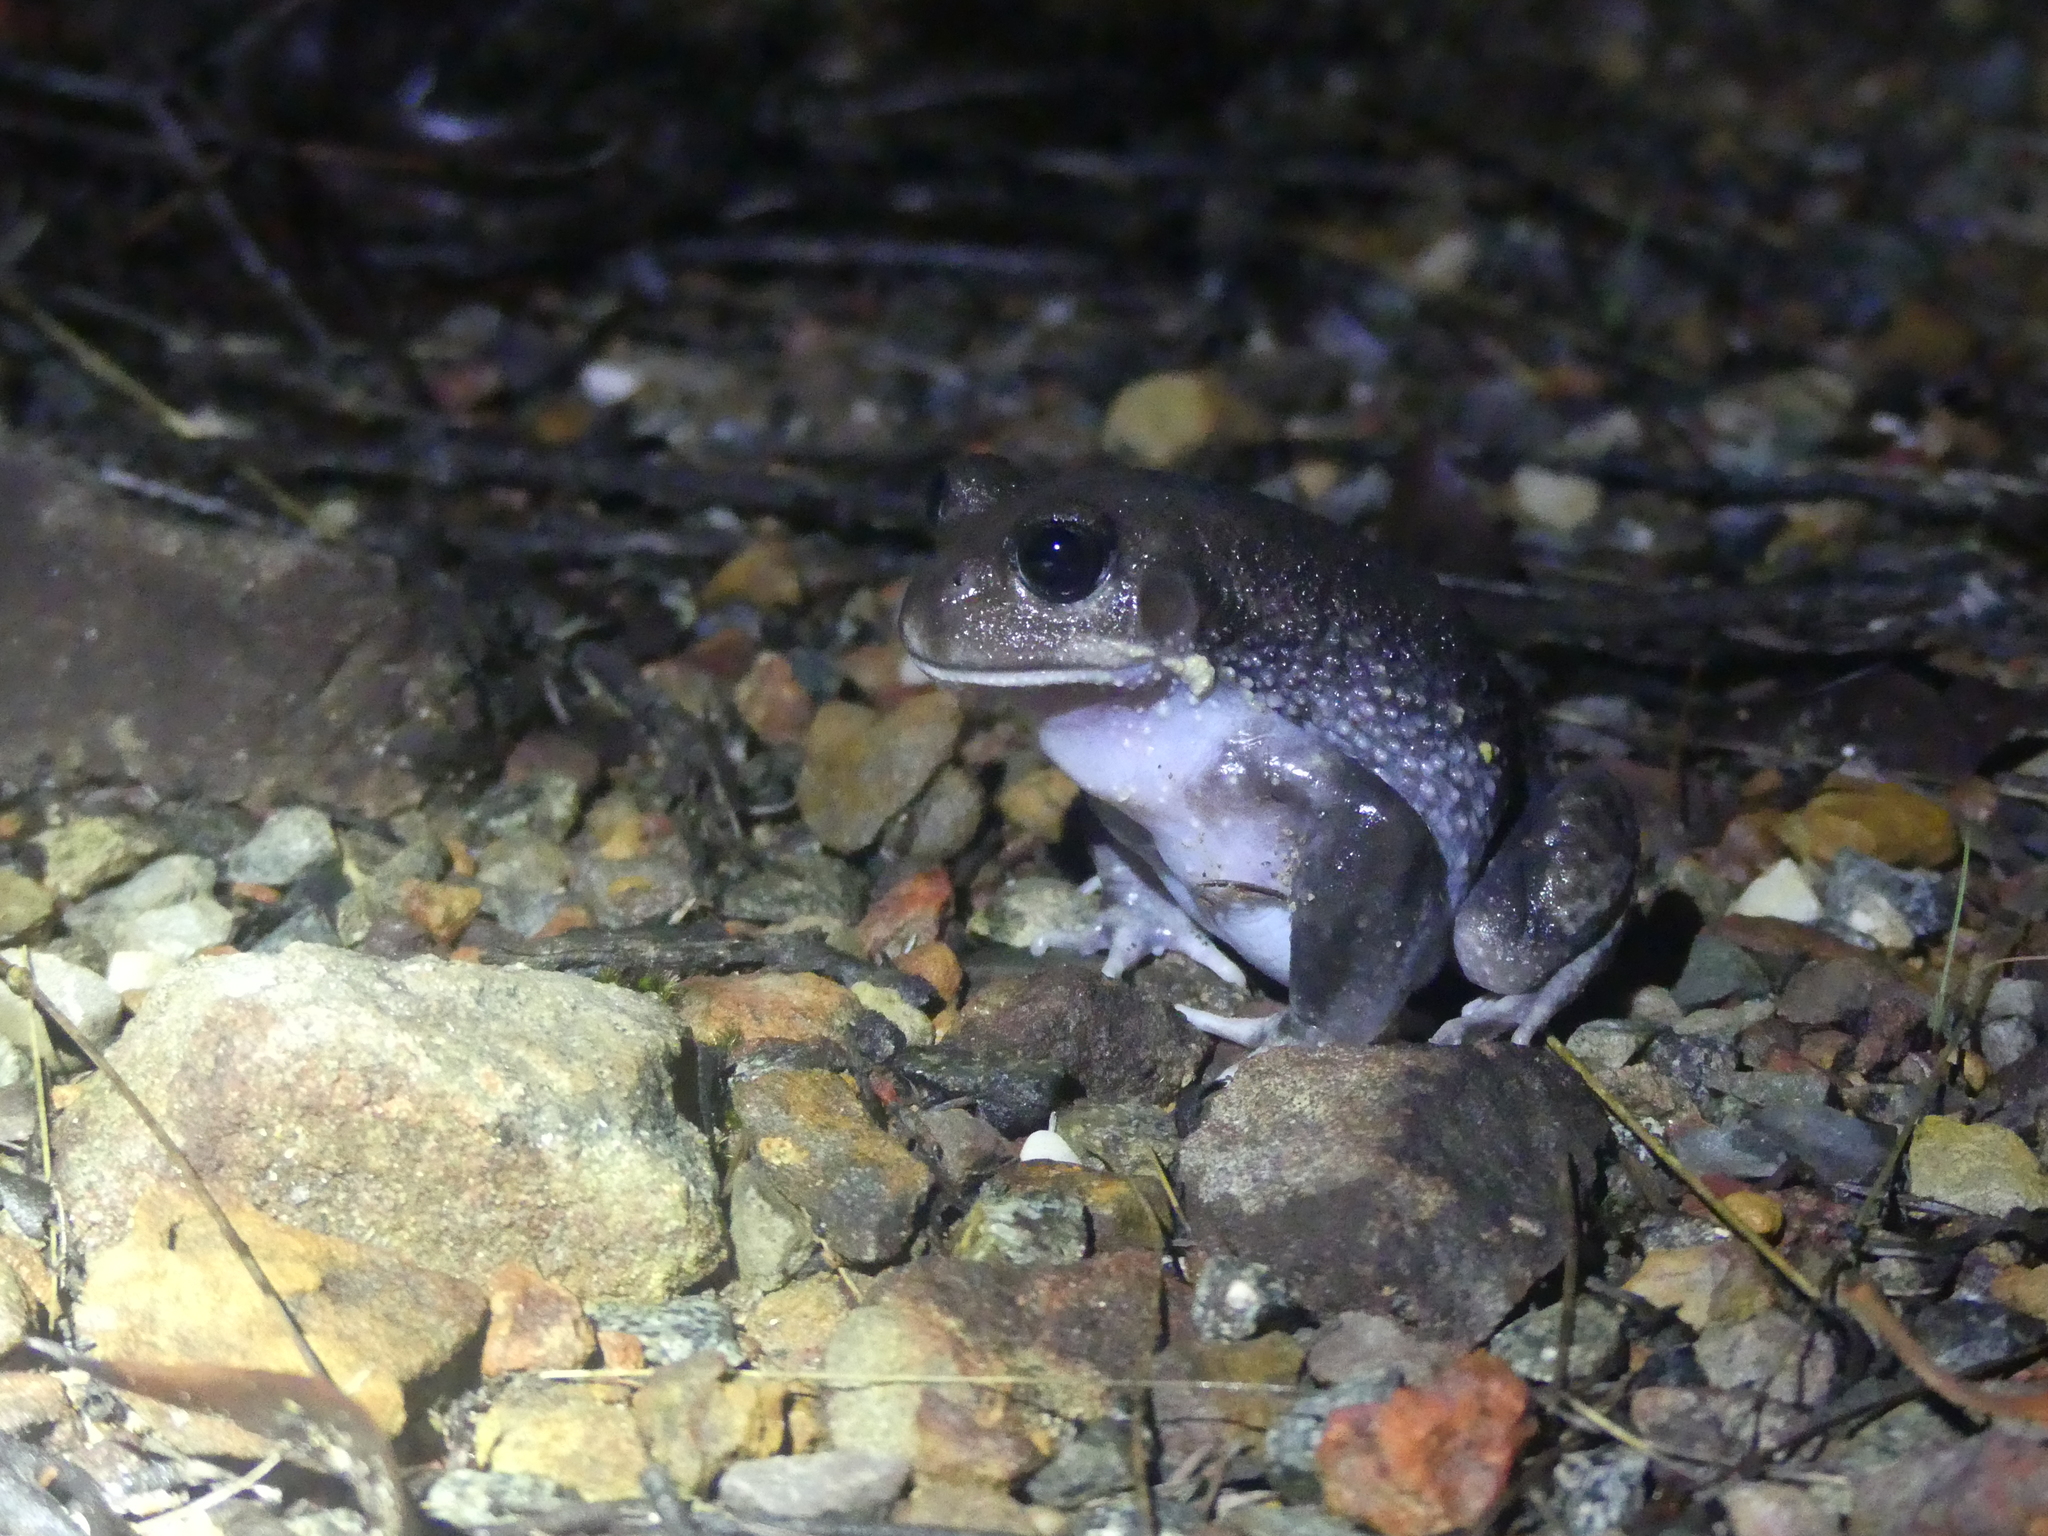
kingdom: Animalia
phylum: Chordata
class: Amphibia
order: Anura
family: Limnodynastidae
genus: Heleioporus
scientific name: Heleioporus australiacus
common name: Eastern owl frog
